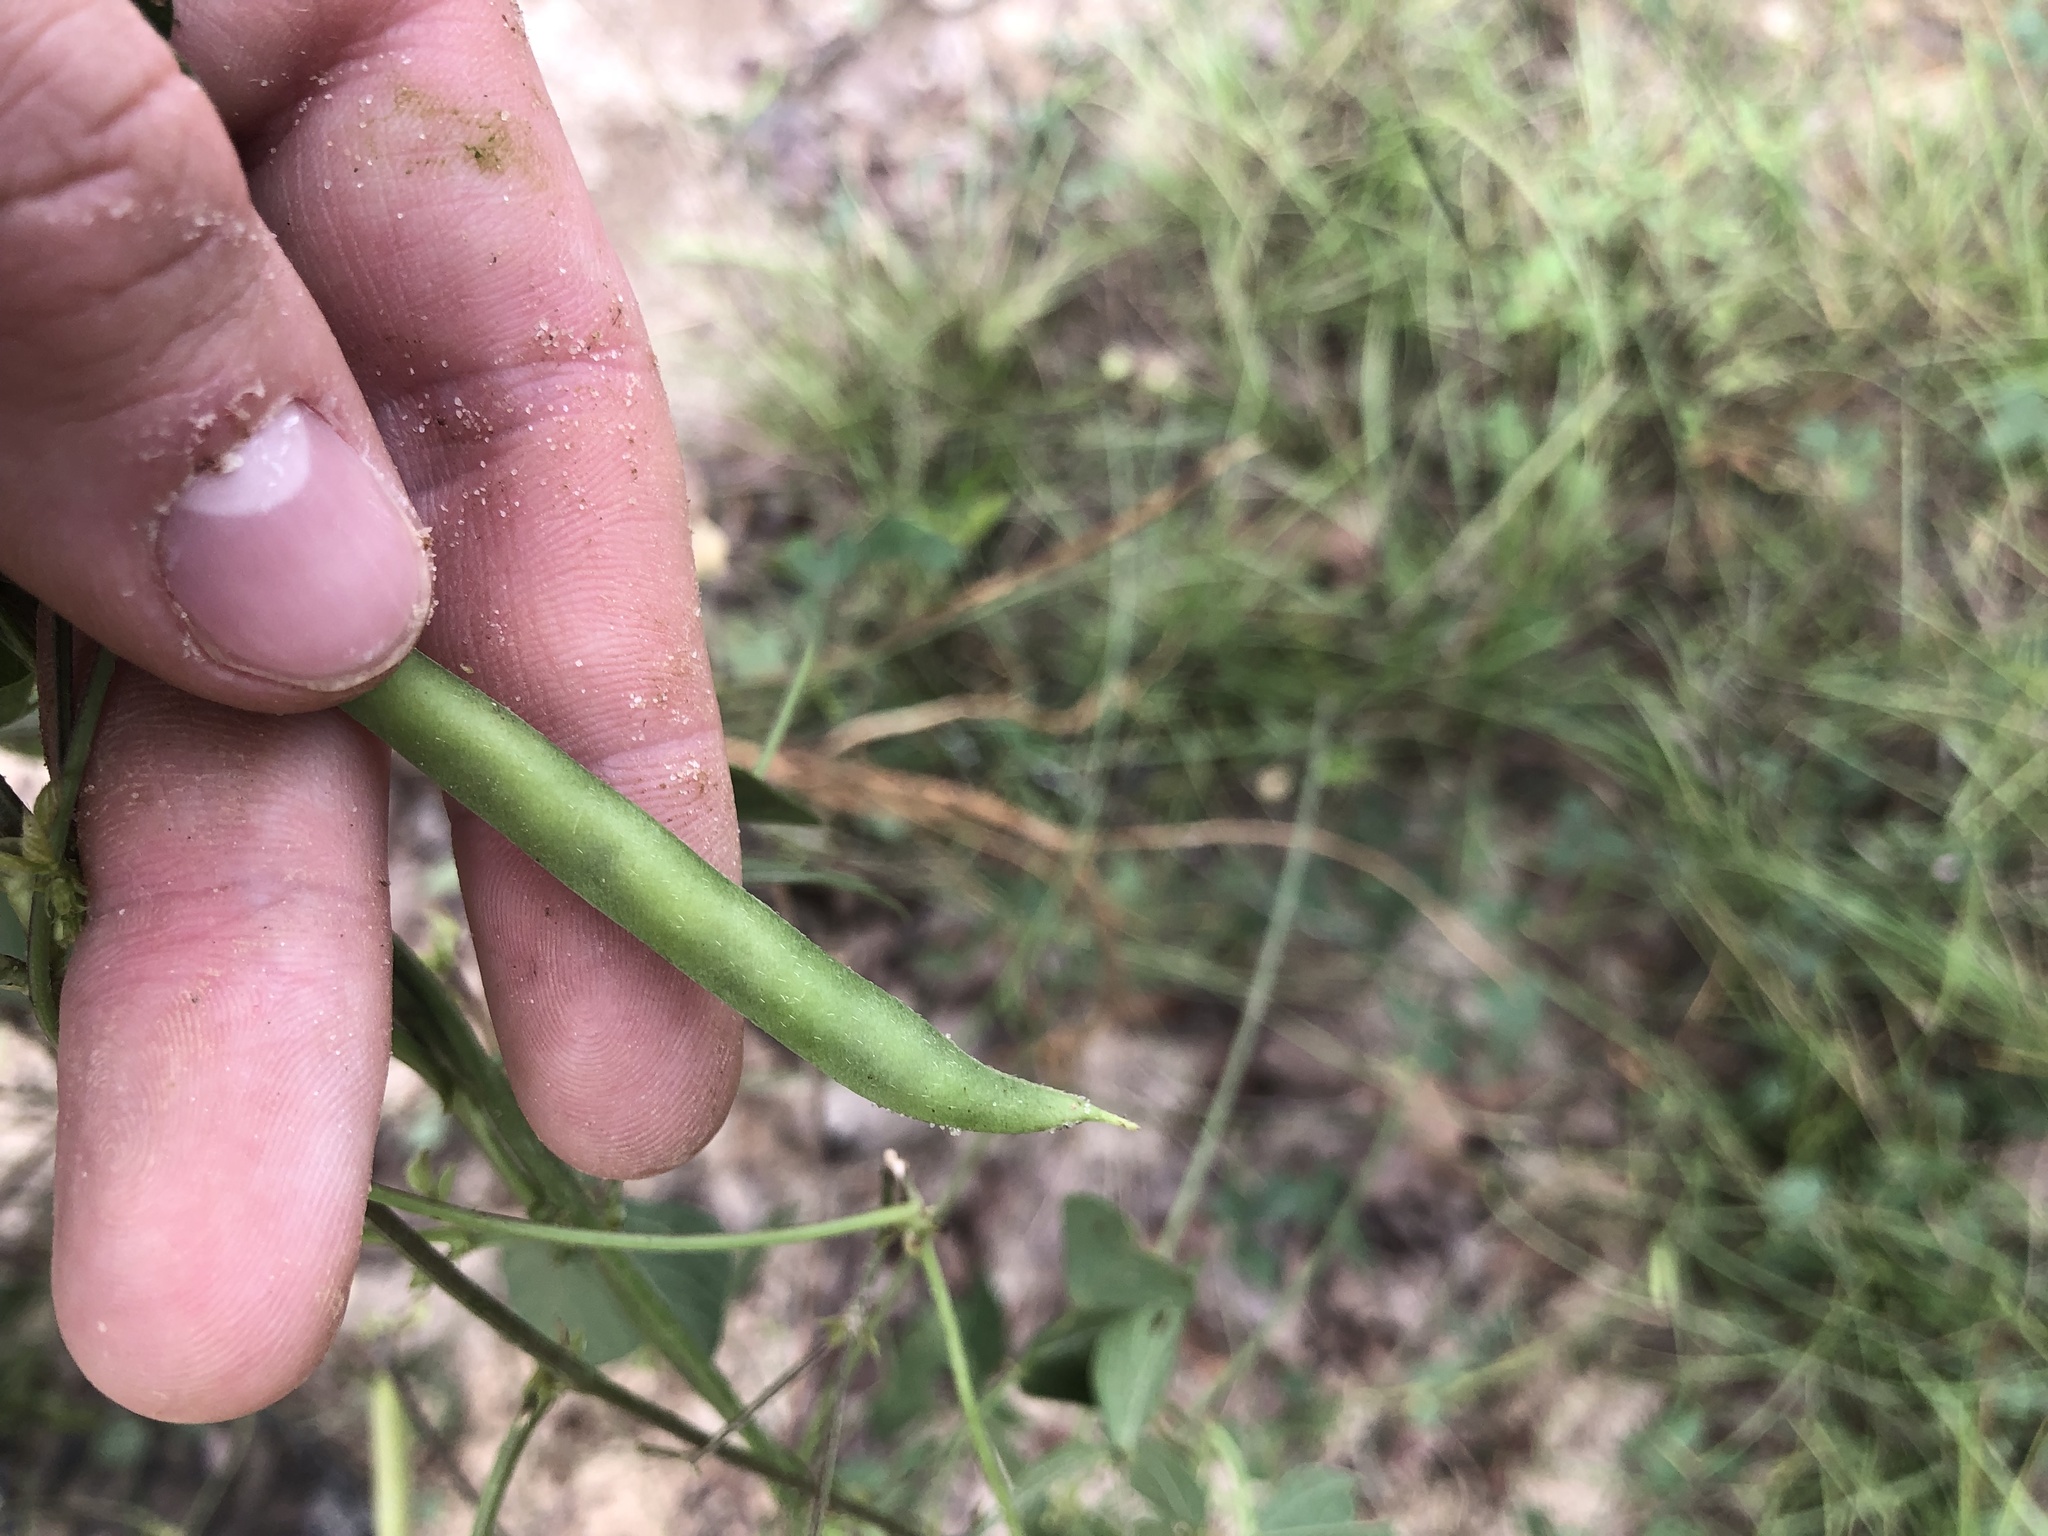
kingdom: Plantae
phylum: Tracheophyta
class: Magnoliopsida
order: Fabales
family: Fabaceae
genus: Strophostyles
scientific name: Strophostyles helvola
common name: Trailing wild bean
